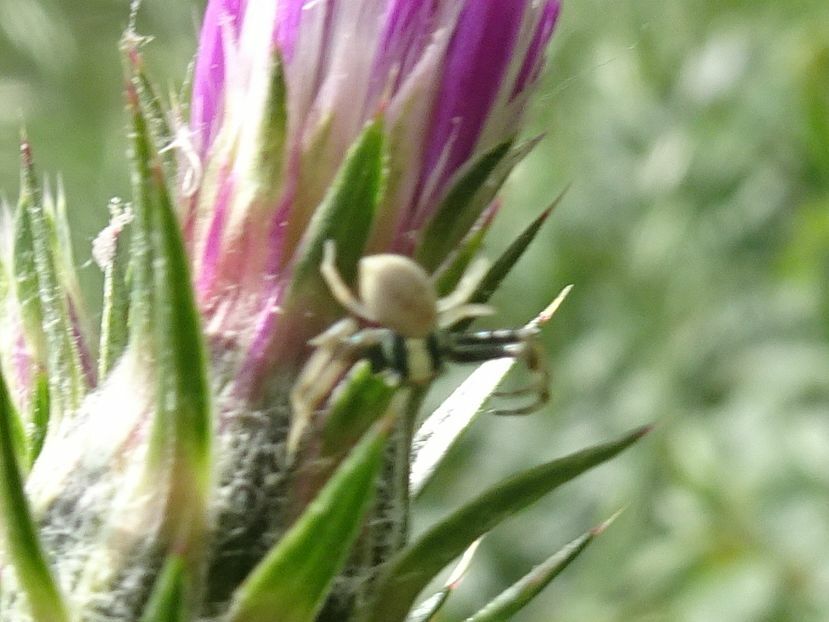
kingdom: Animalia
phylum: Arthropoda
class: Arachnida
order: Araneae
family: Thomisidae
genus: Misumena
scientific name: Misumena vatia
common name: Goldenrod crab spider
